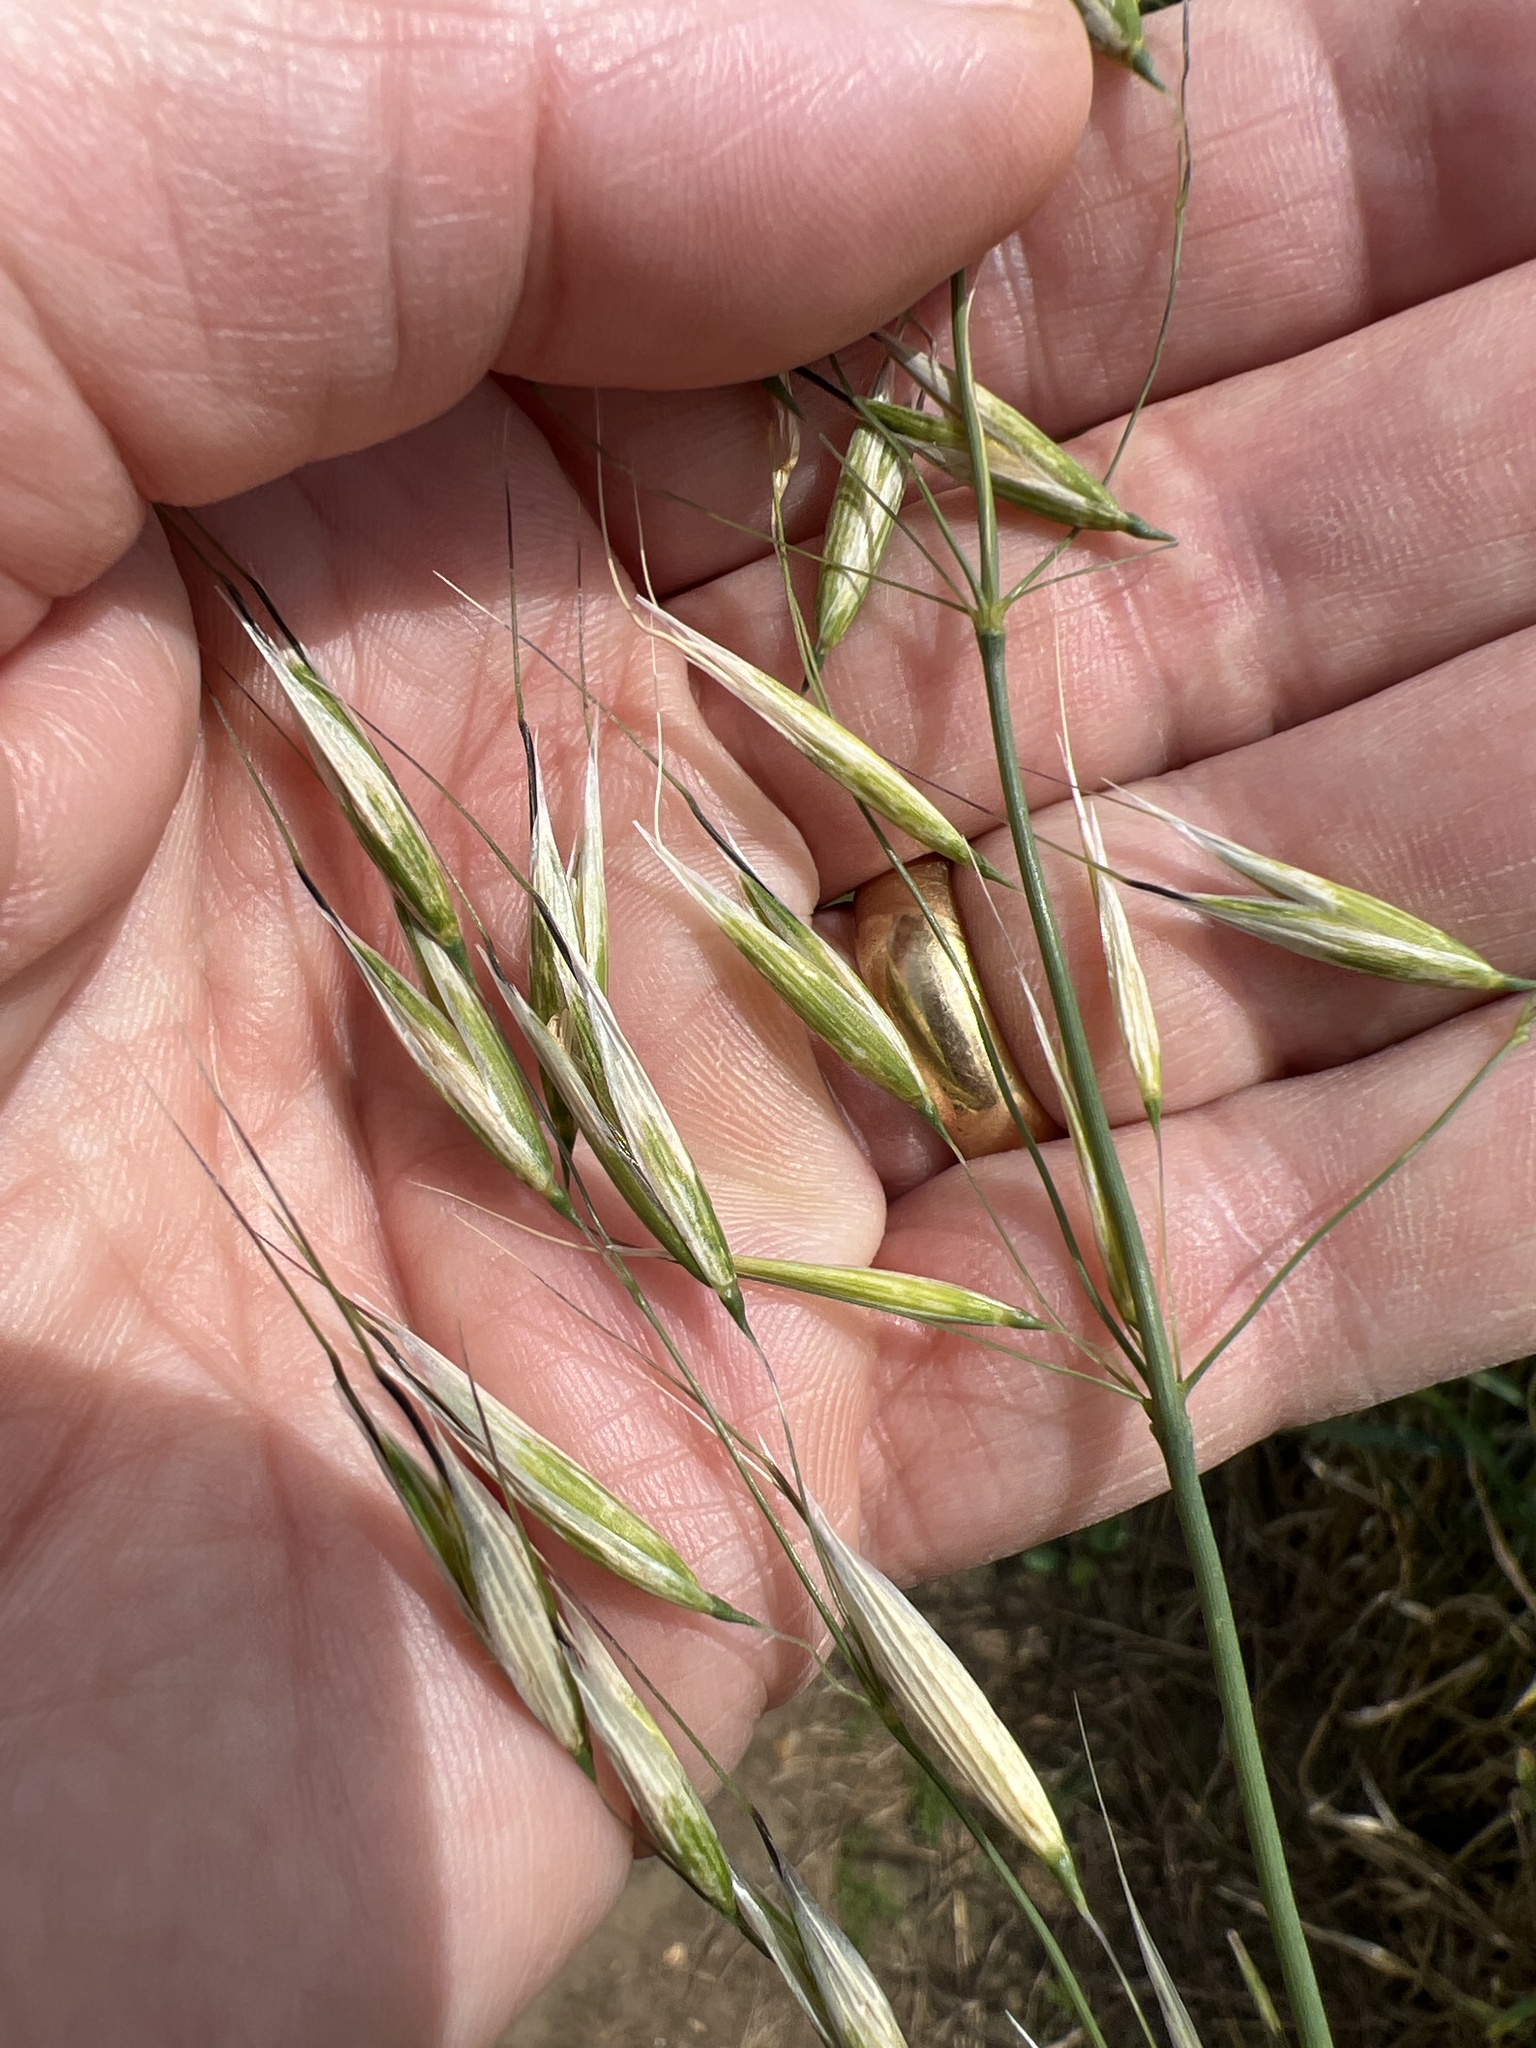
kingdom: Plantae
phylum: Tracheophyta
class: Liliopsida
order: Poales
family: Poaceae
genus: Avena
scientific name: Avena fatua
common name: Wild oat
